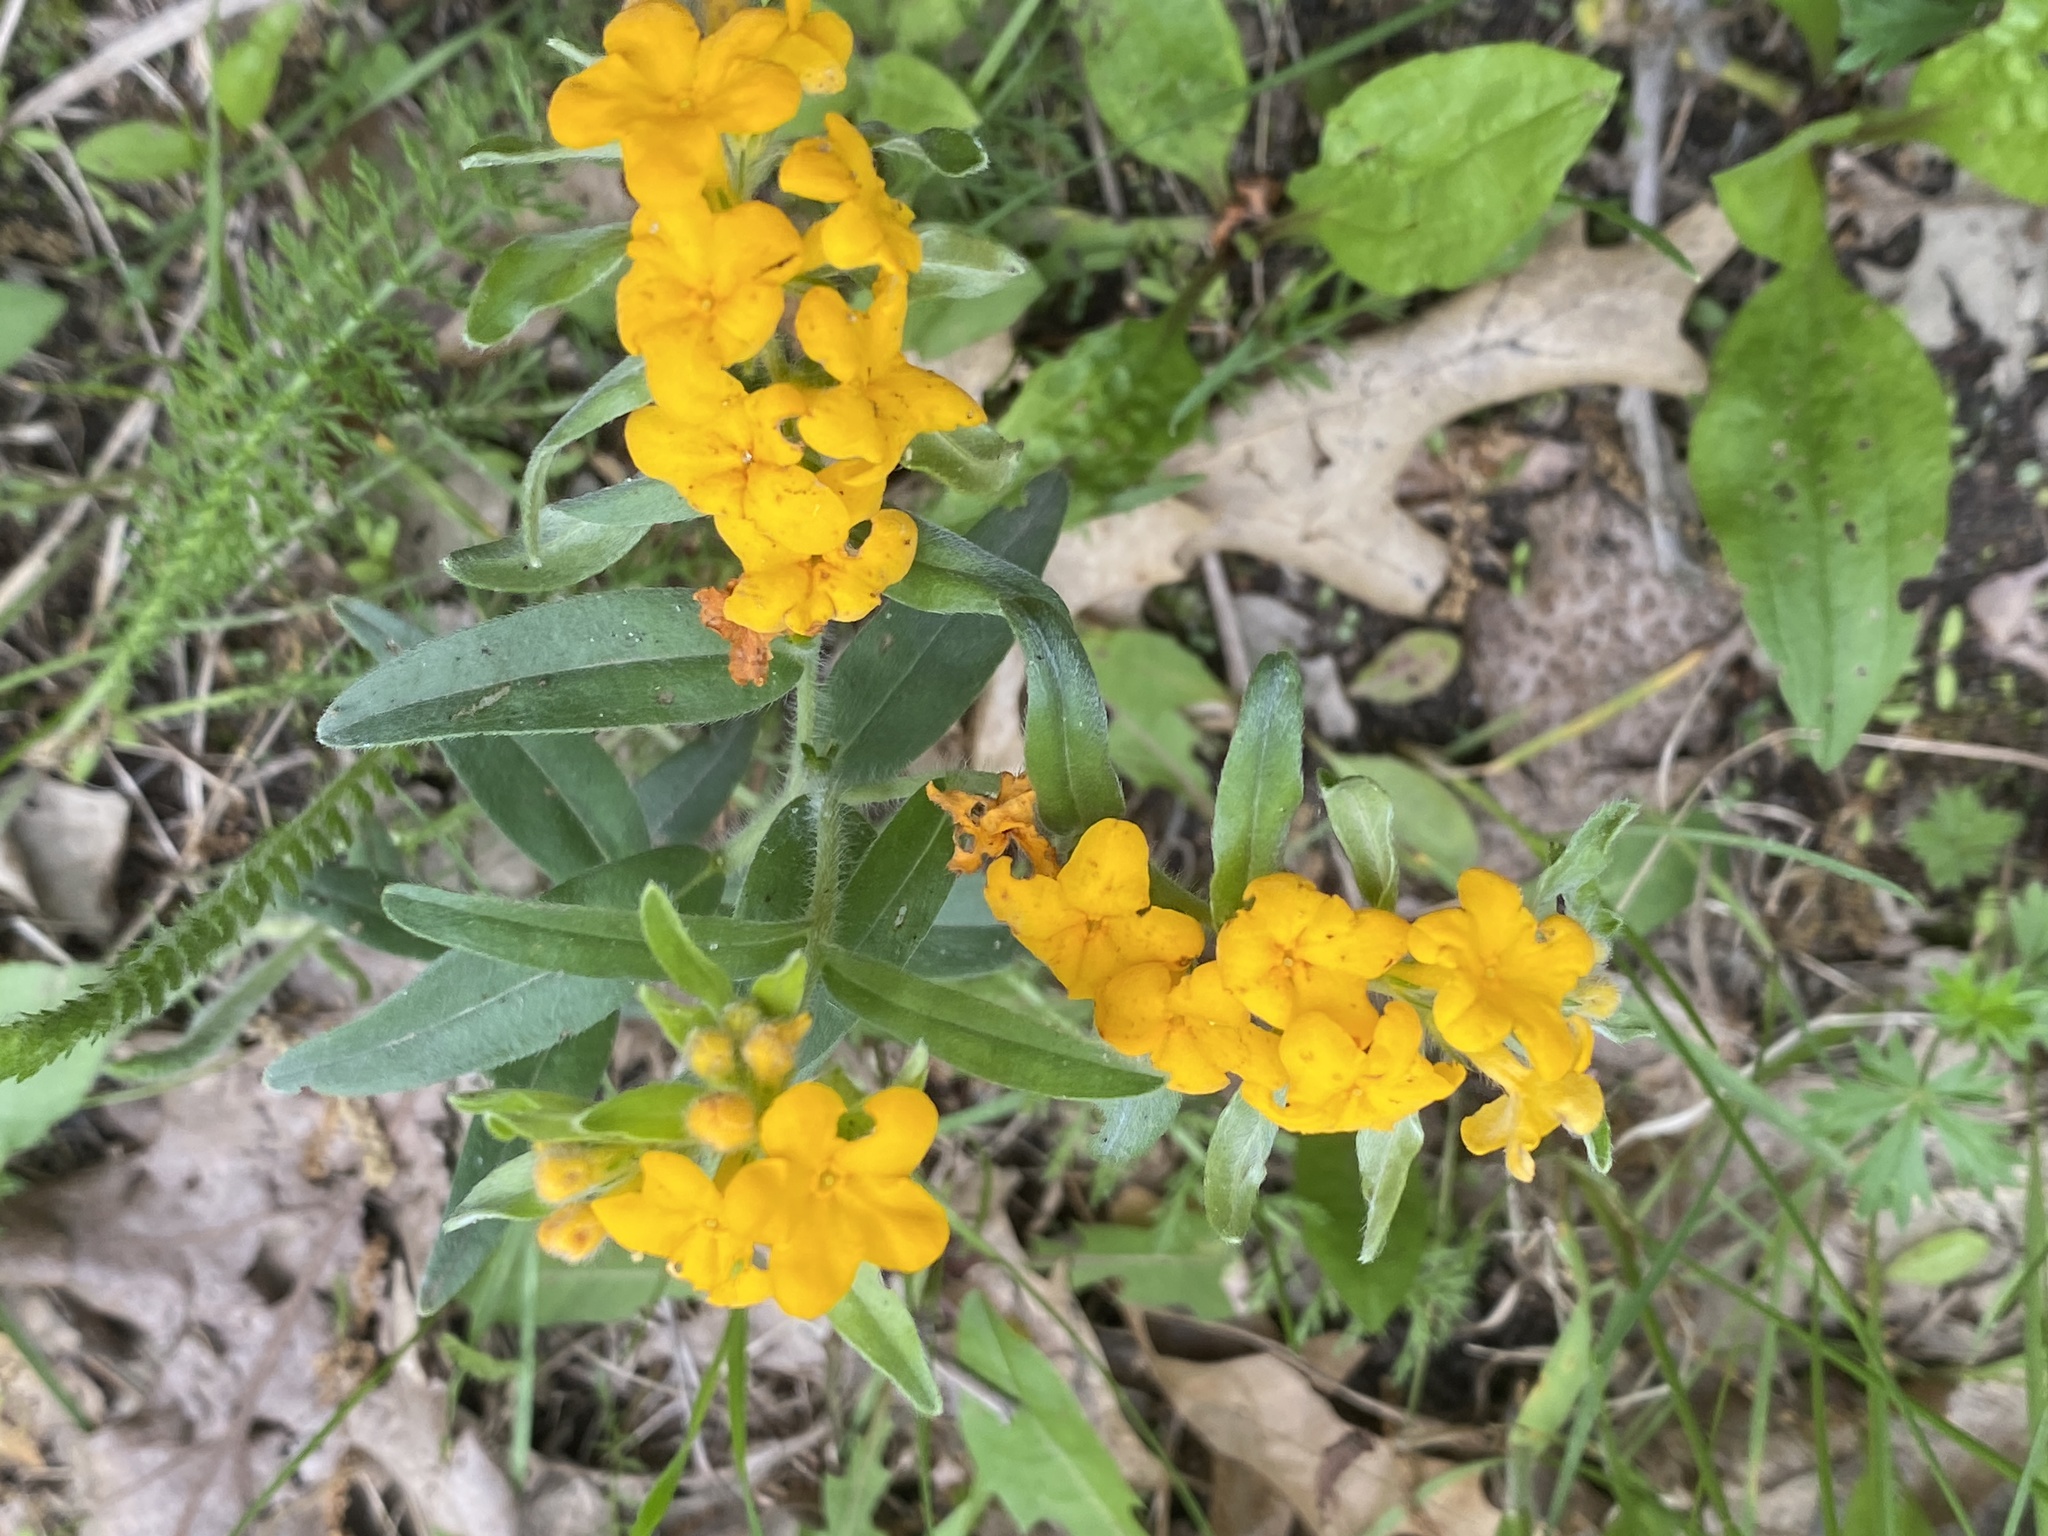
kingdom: Plantae
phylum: Tracheophyta
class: Magnoliopsida
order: Boraginales
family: Boraginaceae
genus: Lithospermum
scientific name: Lithospermum canescens
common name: Hoary puccoon
